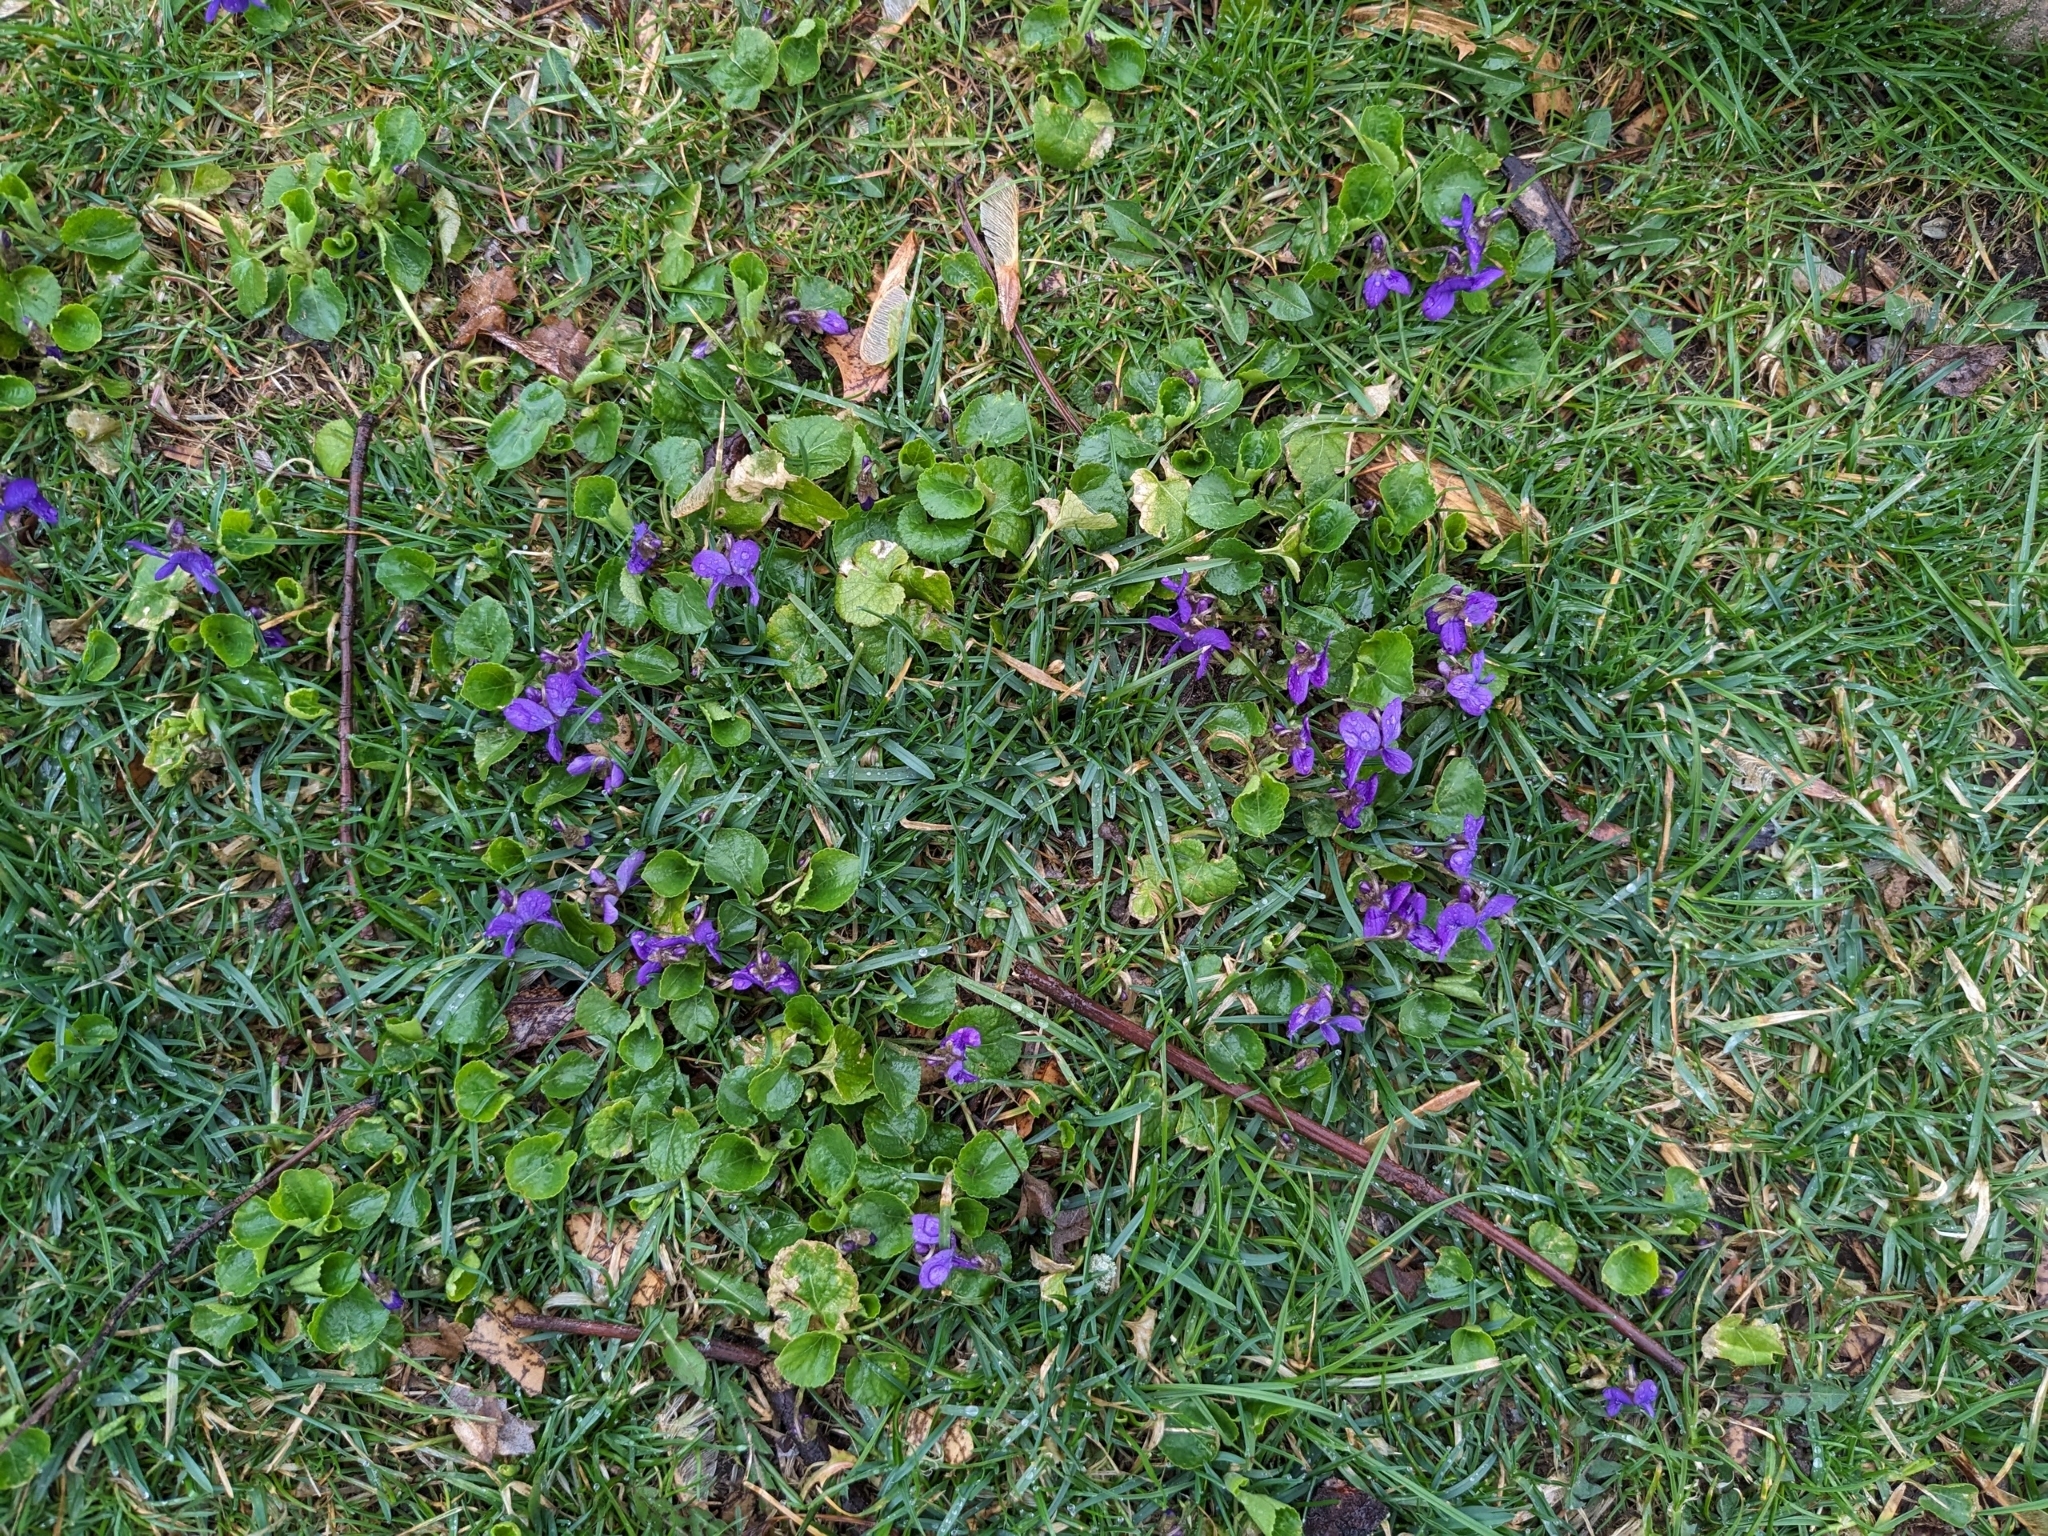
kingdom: Plantae
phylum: Tracheophyta
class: Magnoliopsida
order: Malpighiales
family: Violaceae
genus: Viola
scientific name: Viola odorata
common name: Sweet violet
